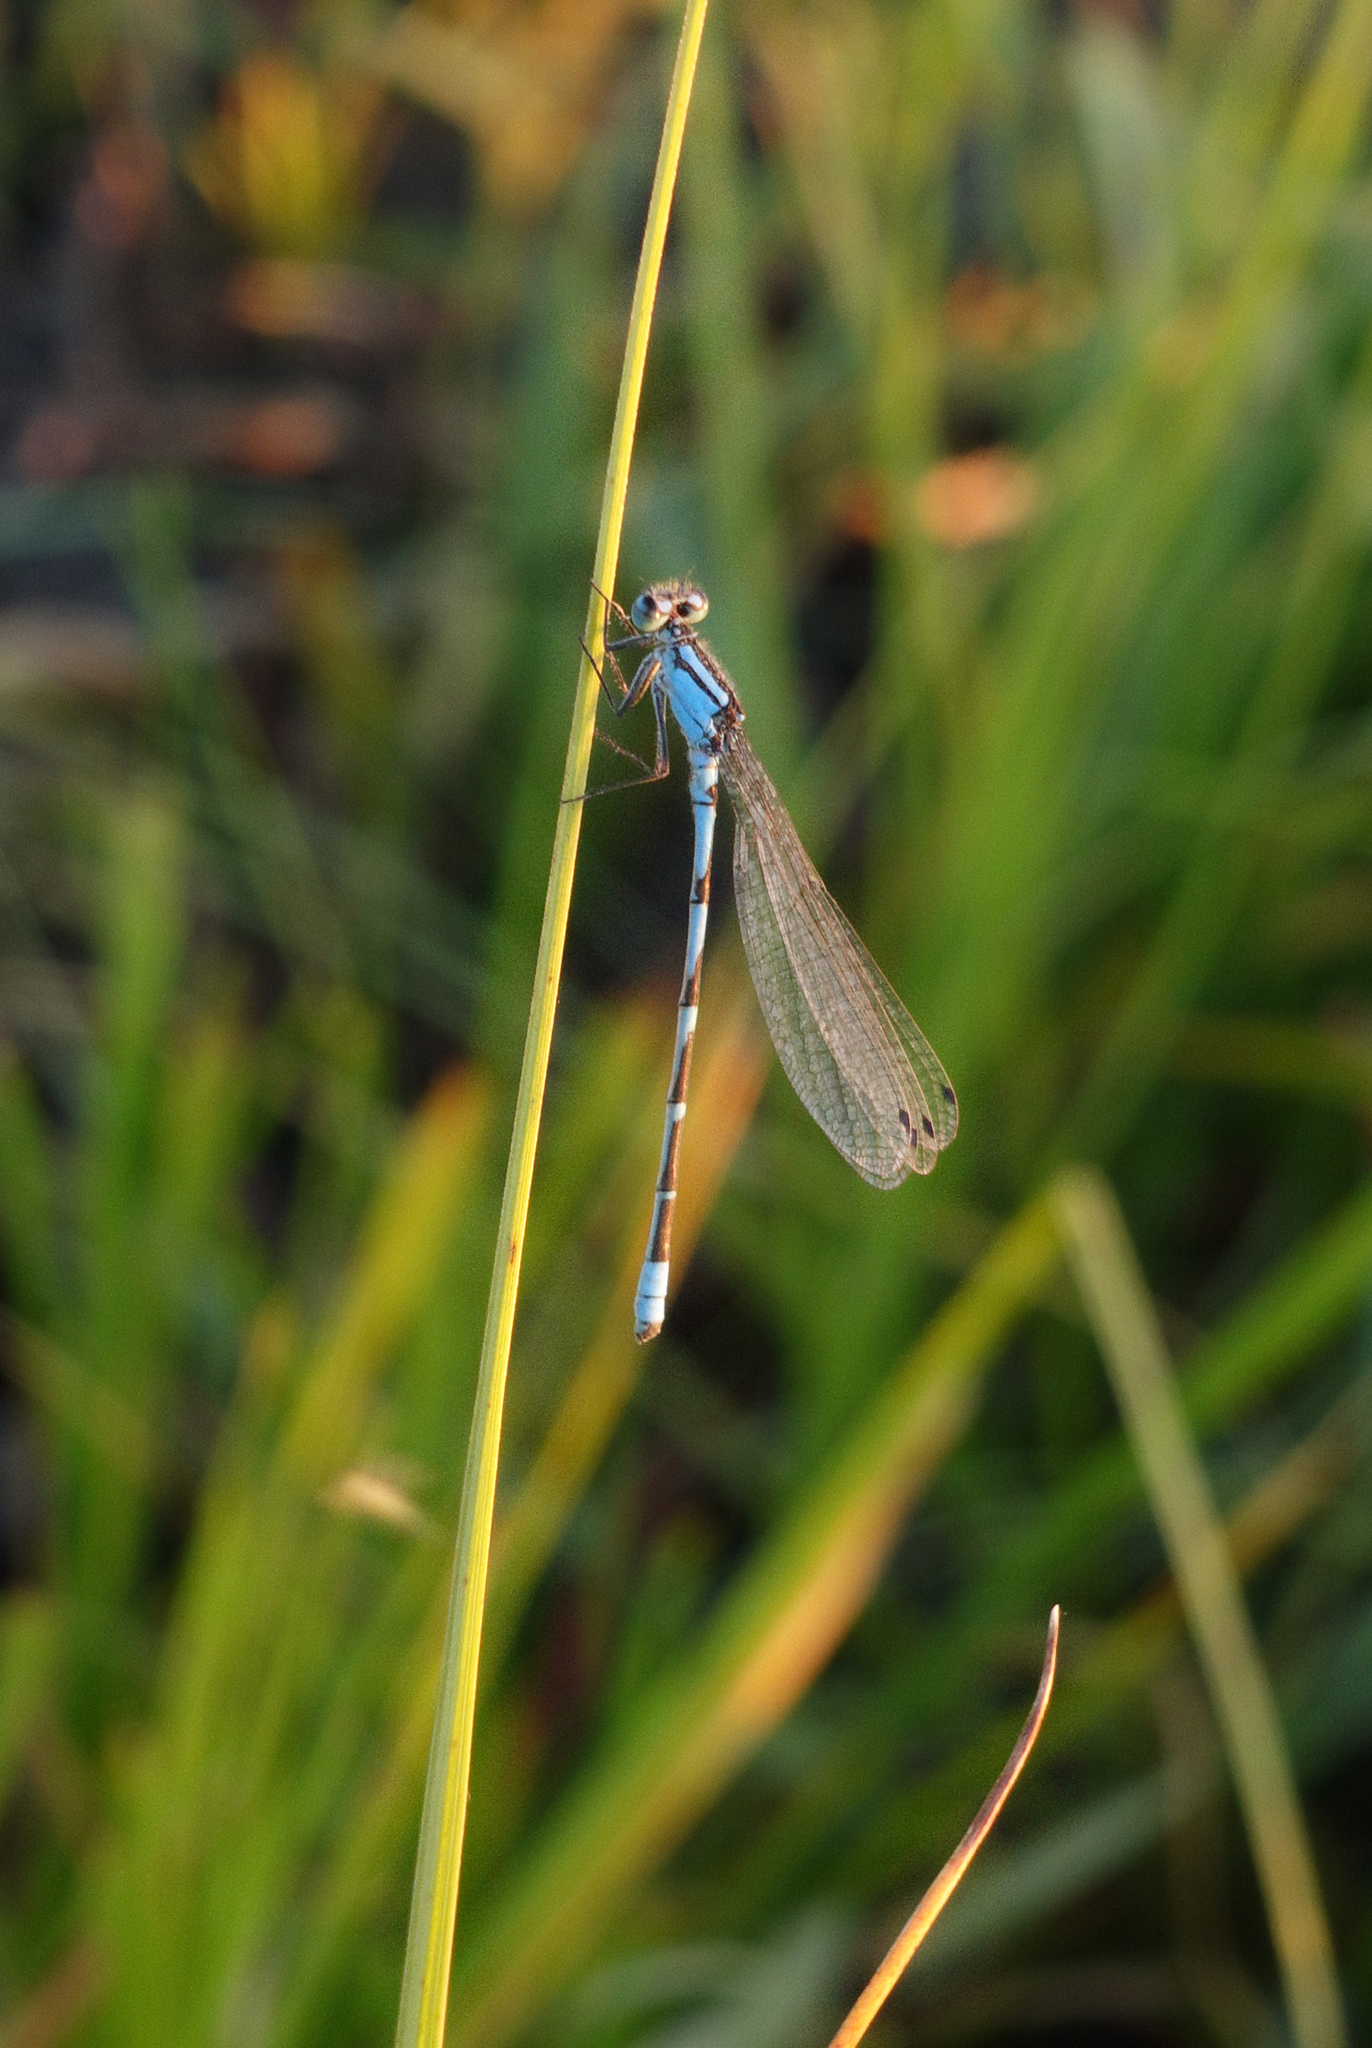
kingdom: Animalia
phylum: Arthropoda
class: Insecta
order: Odonata
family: Coenagrionidae
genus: Enallagma
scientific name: Enallagma cyathigerum
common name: Common blue damselfly
